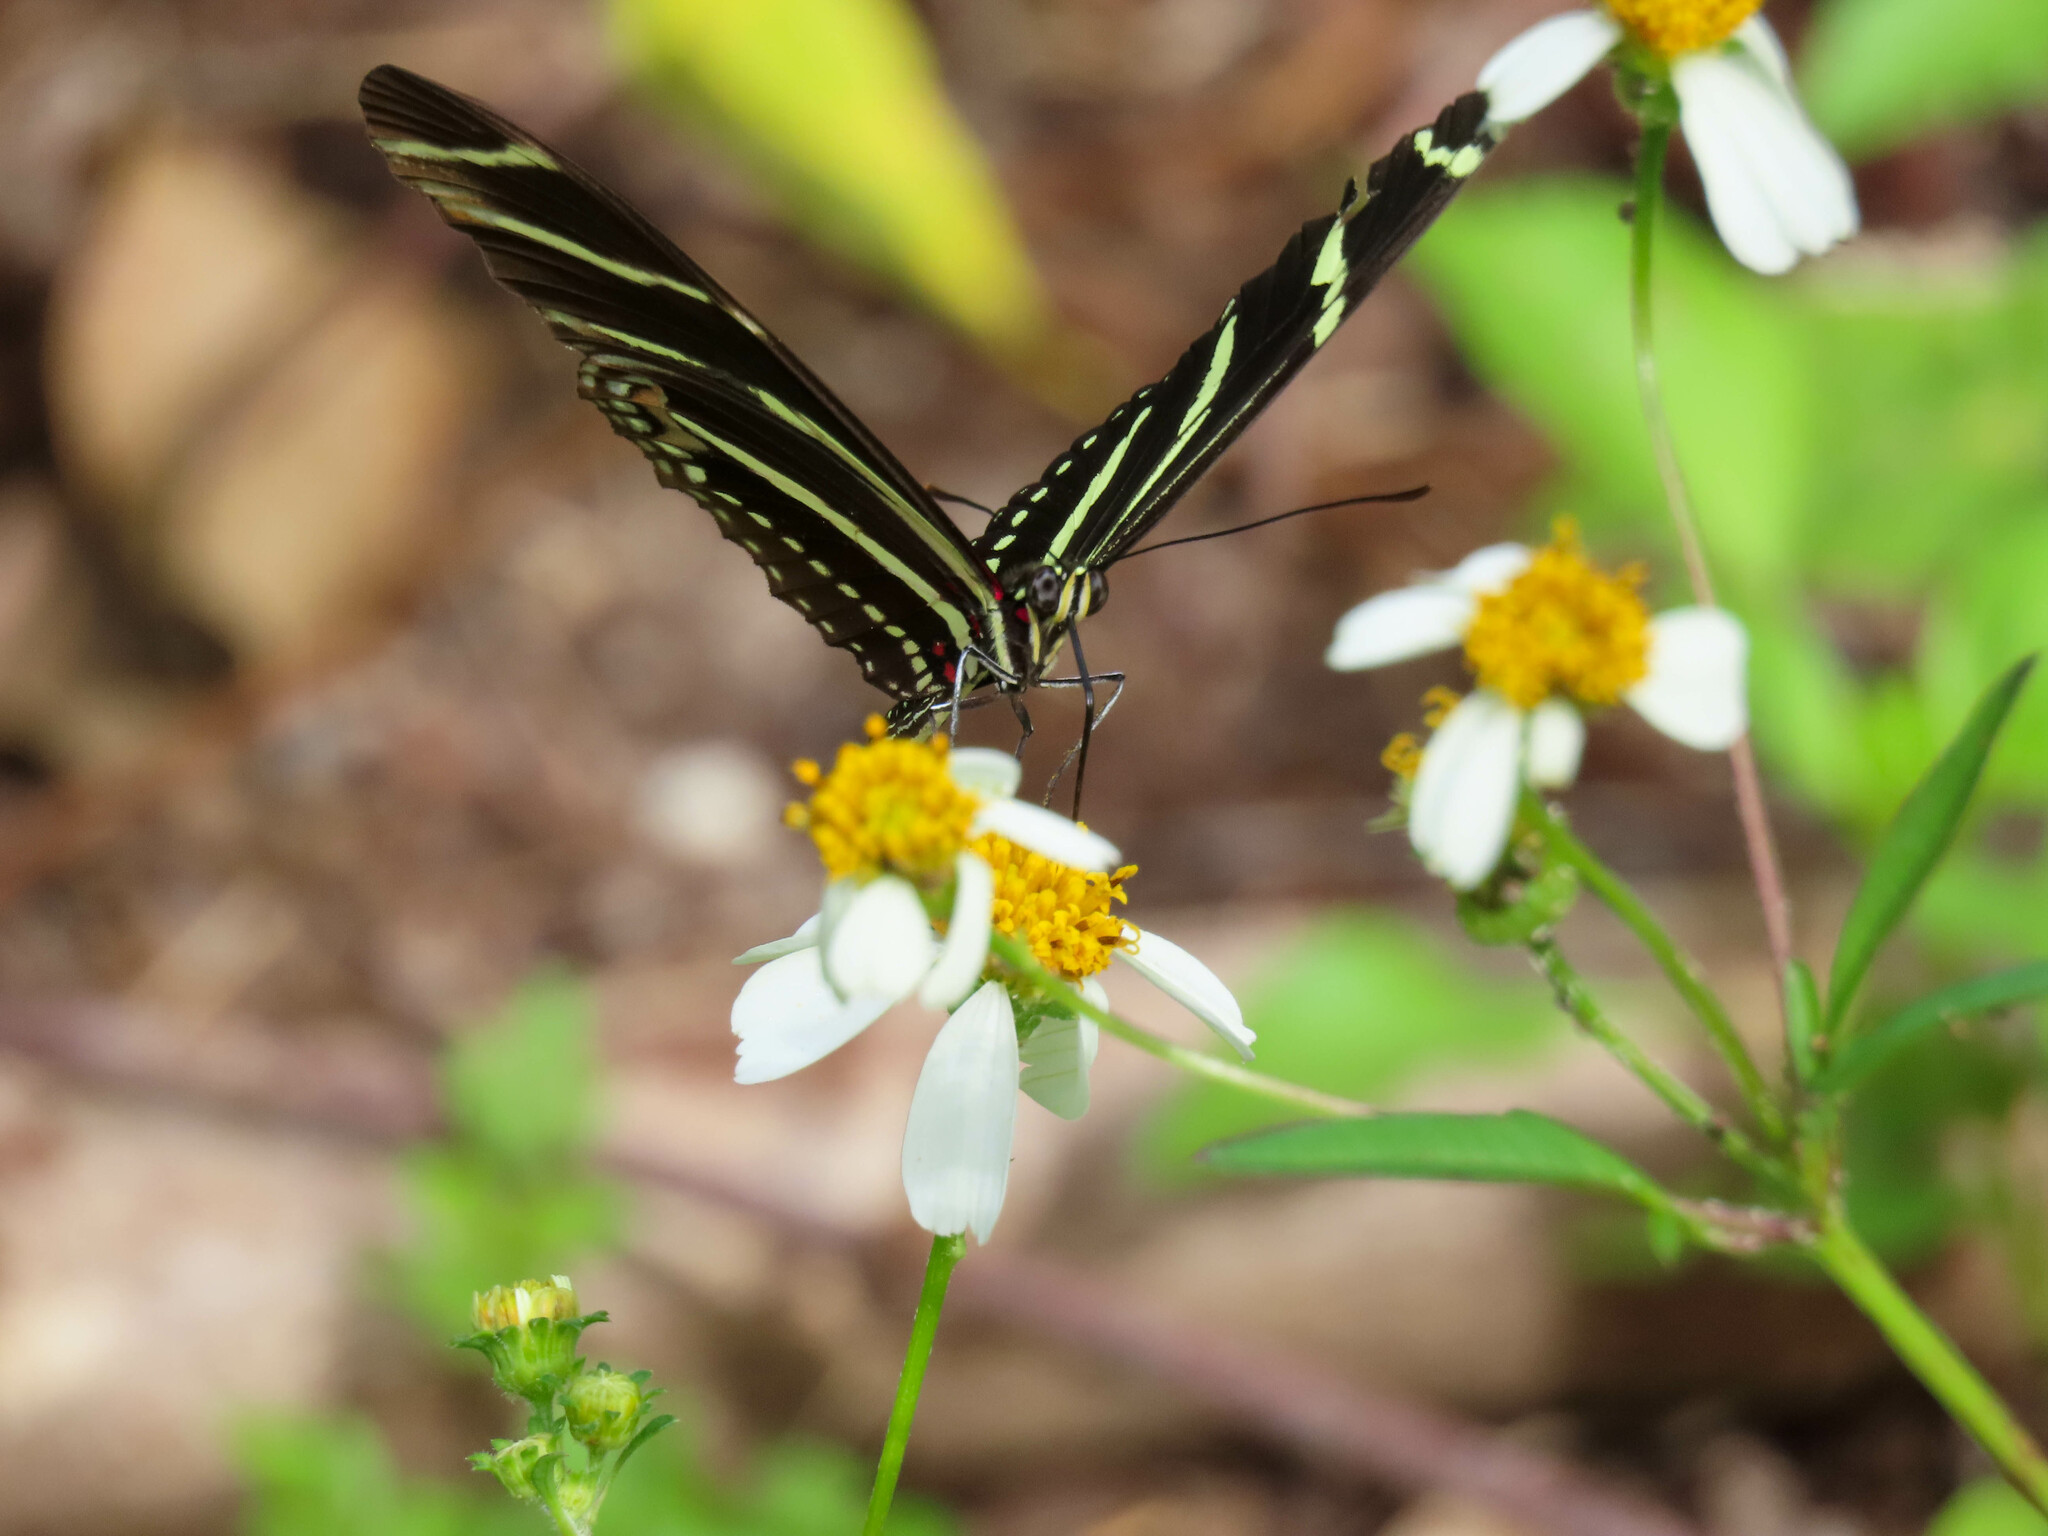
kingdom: Animalia
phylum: Arthropoda
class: Insecta
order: Lepidoptera
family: Nymphalidae
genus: Heliconius
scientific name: Heliconius charithonia
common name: Zebra long wing
